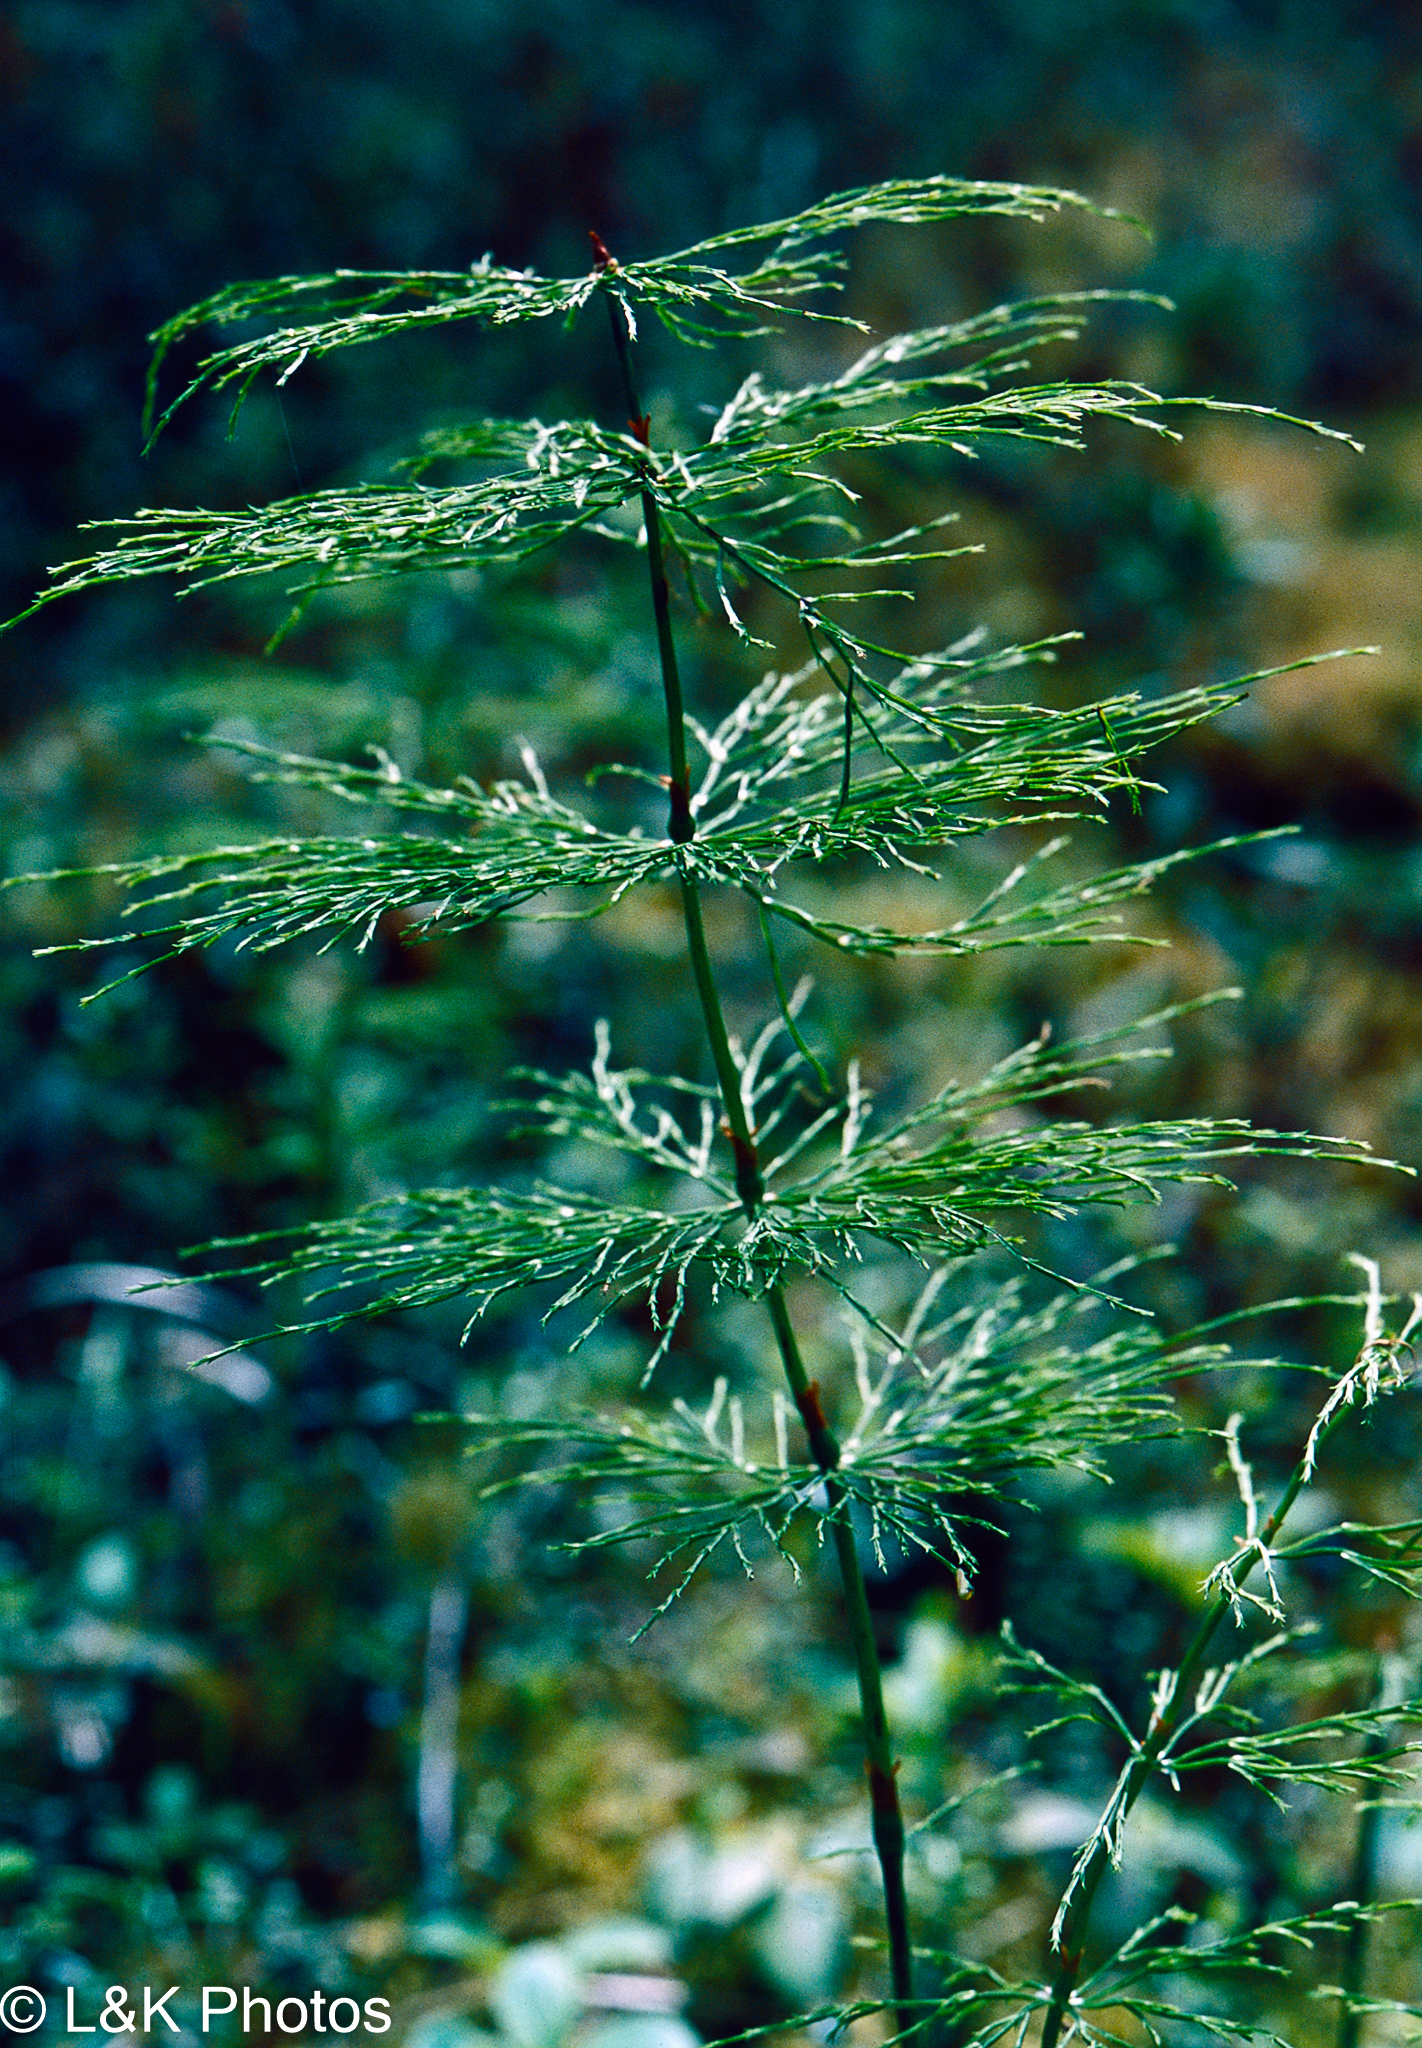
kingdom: Plantae
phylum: Tracheophyta
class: Polypodiopsida
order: Equisetales
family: Equisetaceae
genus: Equisetum
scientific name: Equisetum sylvaticum
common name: Wood horsetail
